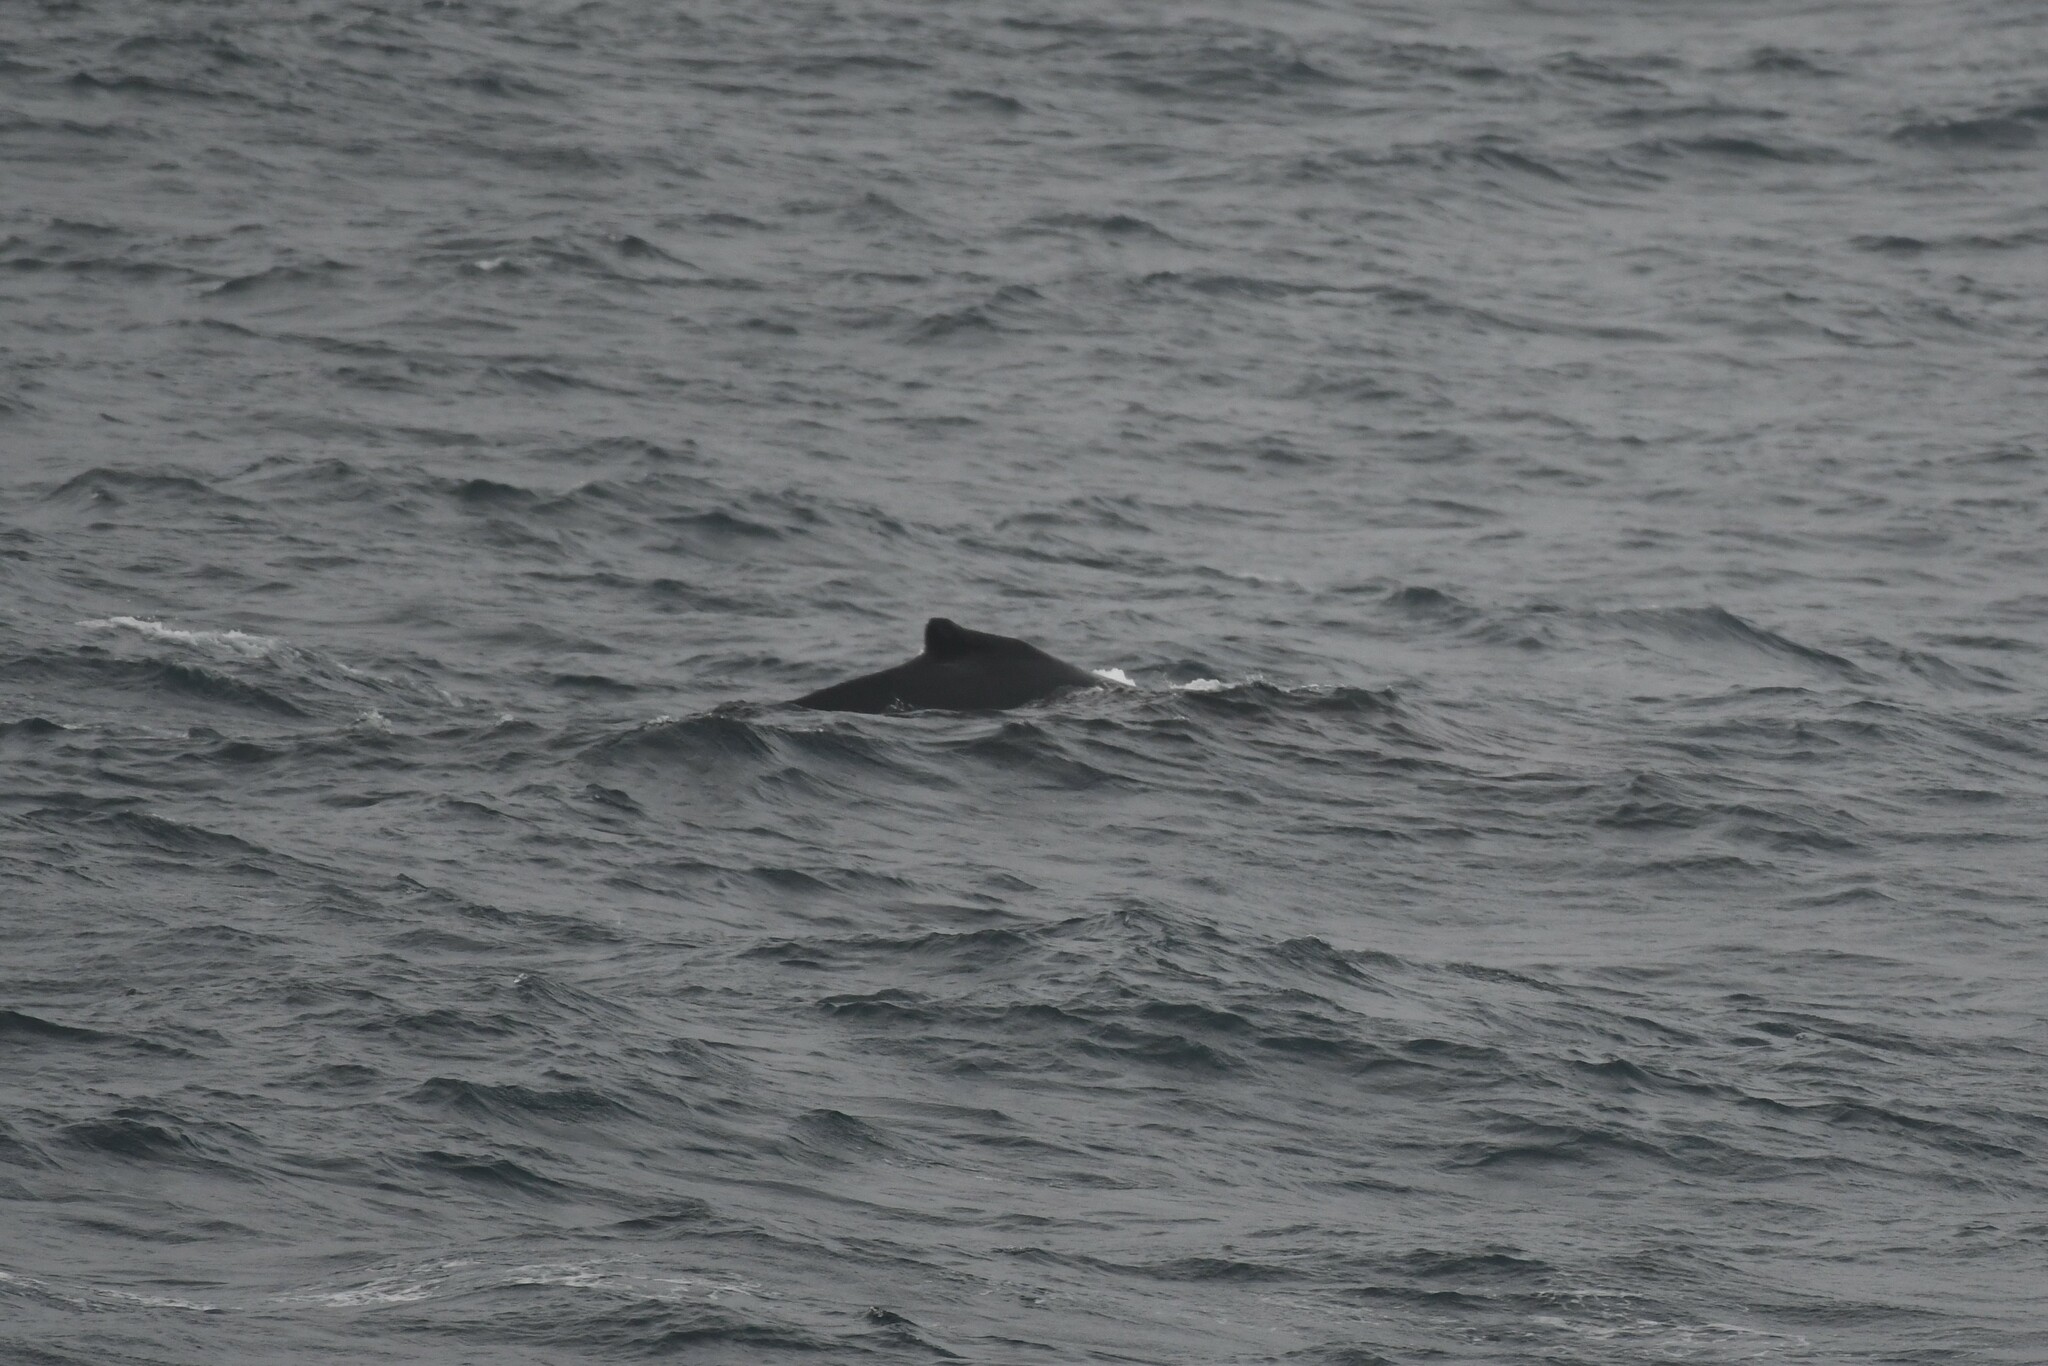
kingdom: Animalia
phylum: Chordata
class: Mammalia
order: Cetacea
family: Balaenopteridae
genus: Megaptera
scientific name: Megaptera novaeangliae
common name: Humpback whale
